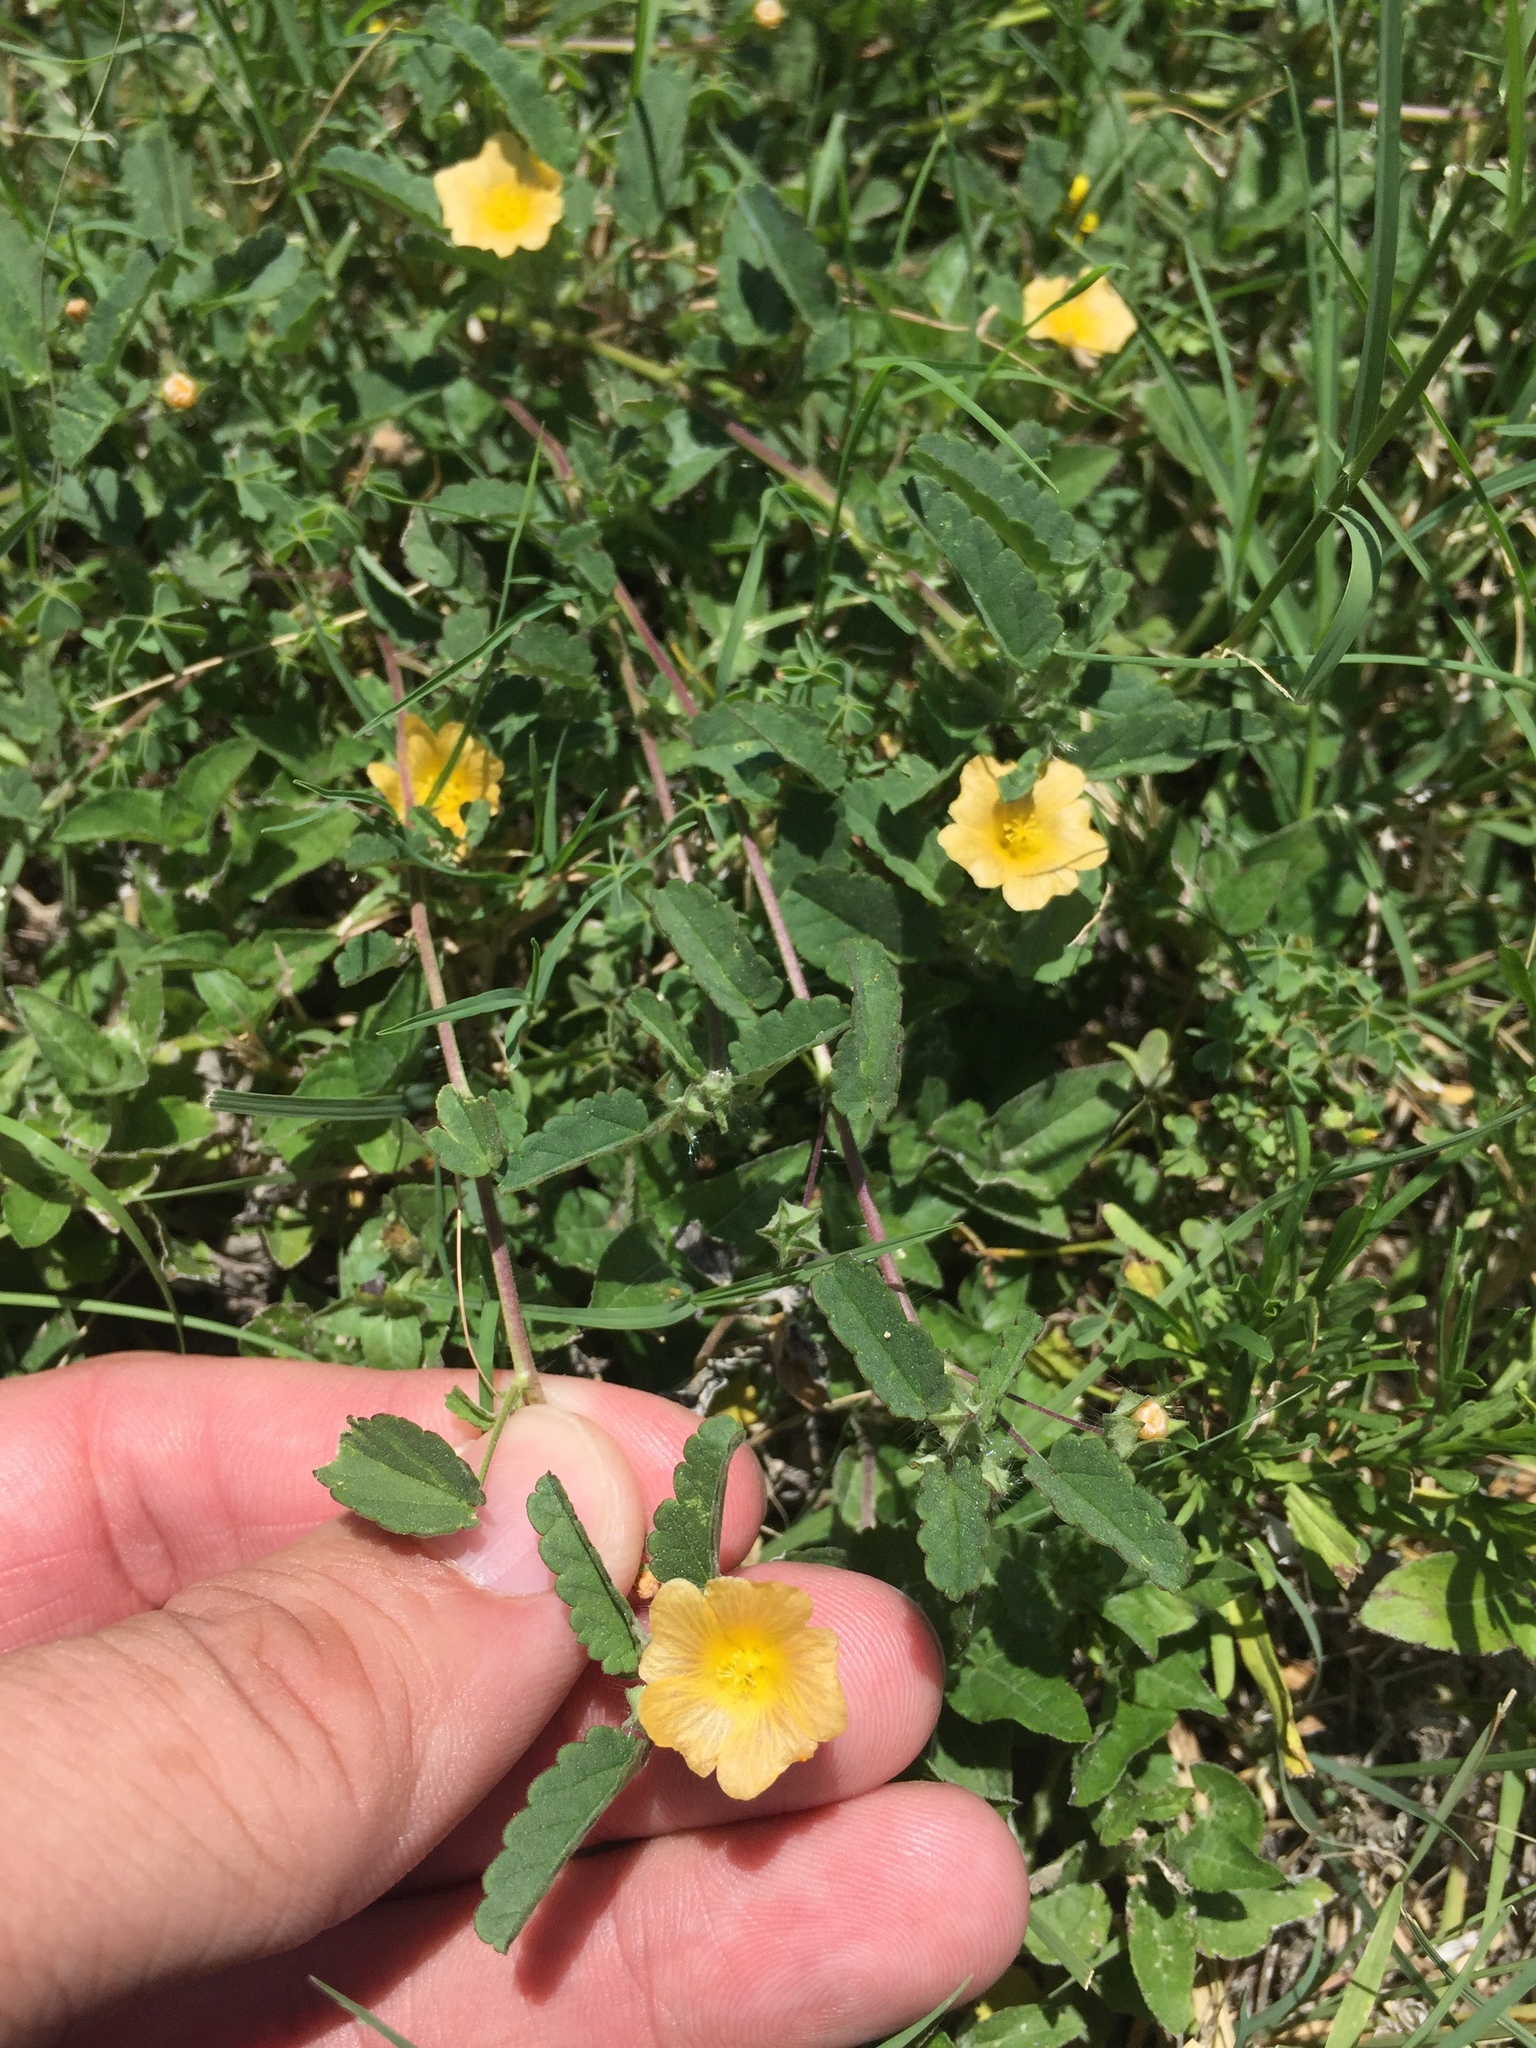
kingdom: Plantae
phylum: Tracheophyta
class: Magnoliopsida
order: Malvales
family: Malvaceae
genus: Sida
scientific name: Sida abutilifolia
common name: Spreading fanpetals
